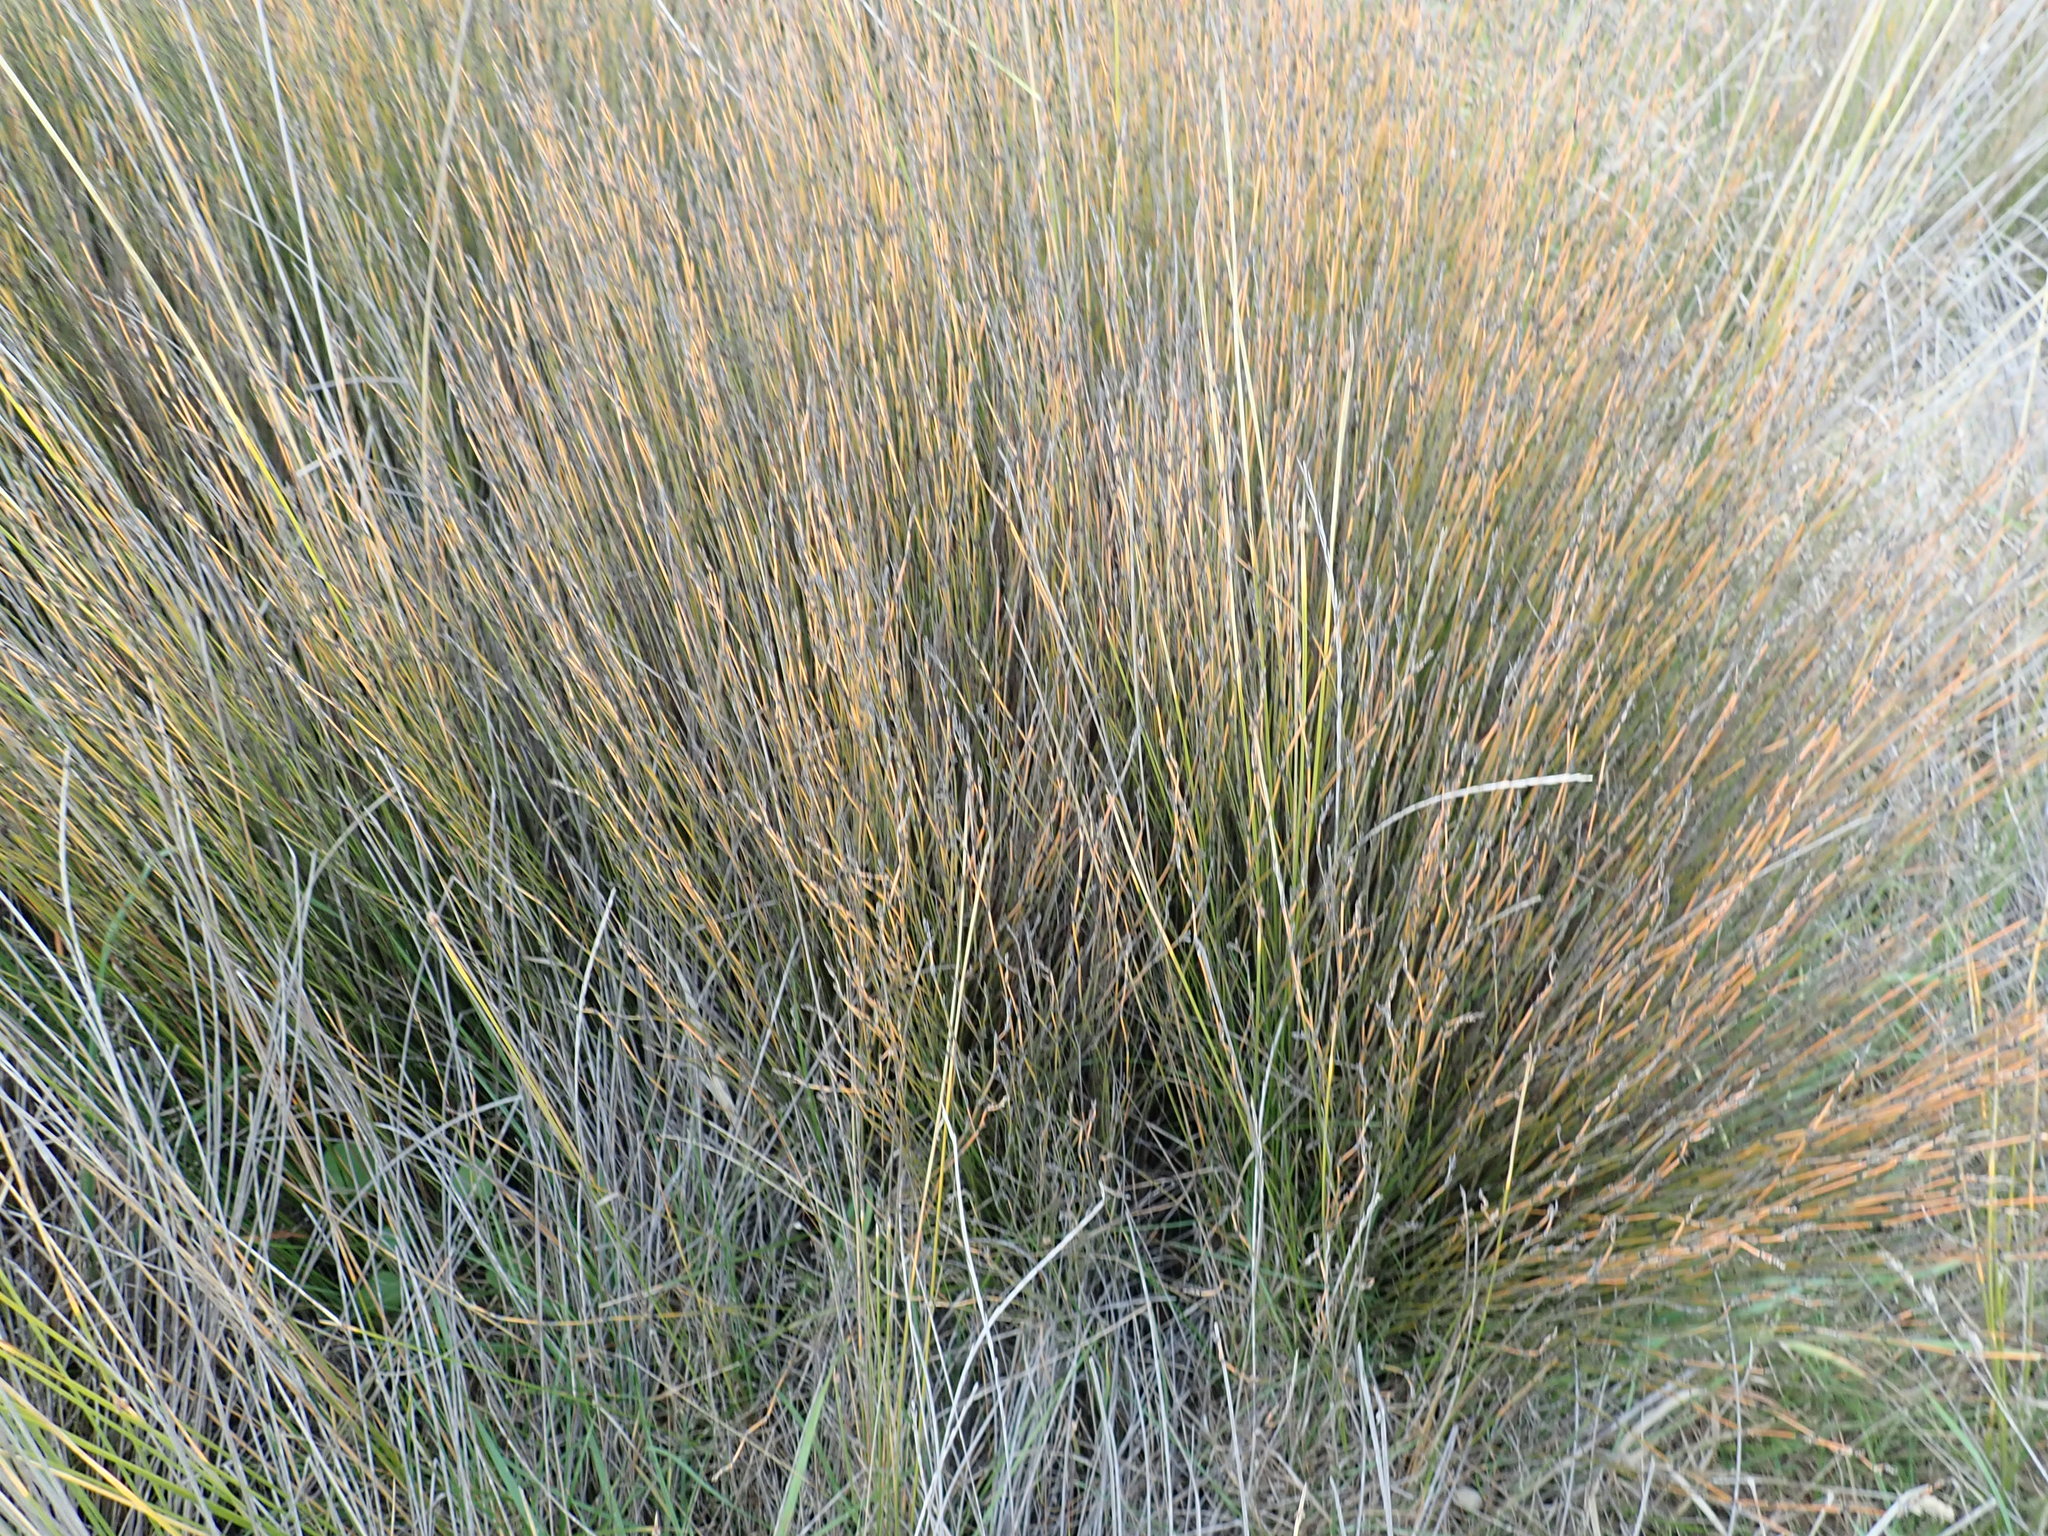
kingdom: Plantae
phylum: Tracheophyta
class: Liliopsida
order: Poales
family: Restionaceae
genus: Apodasmia
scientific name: Apodasmia similis
